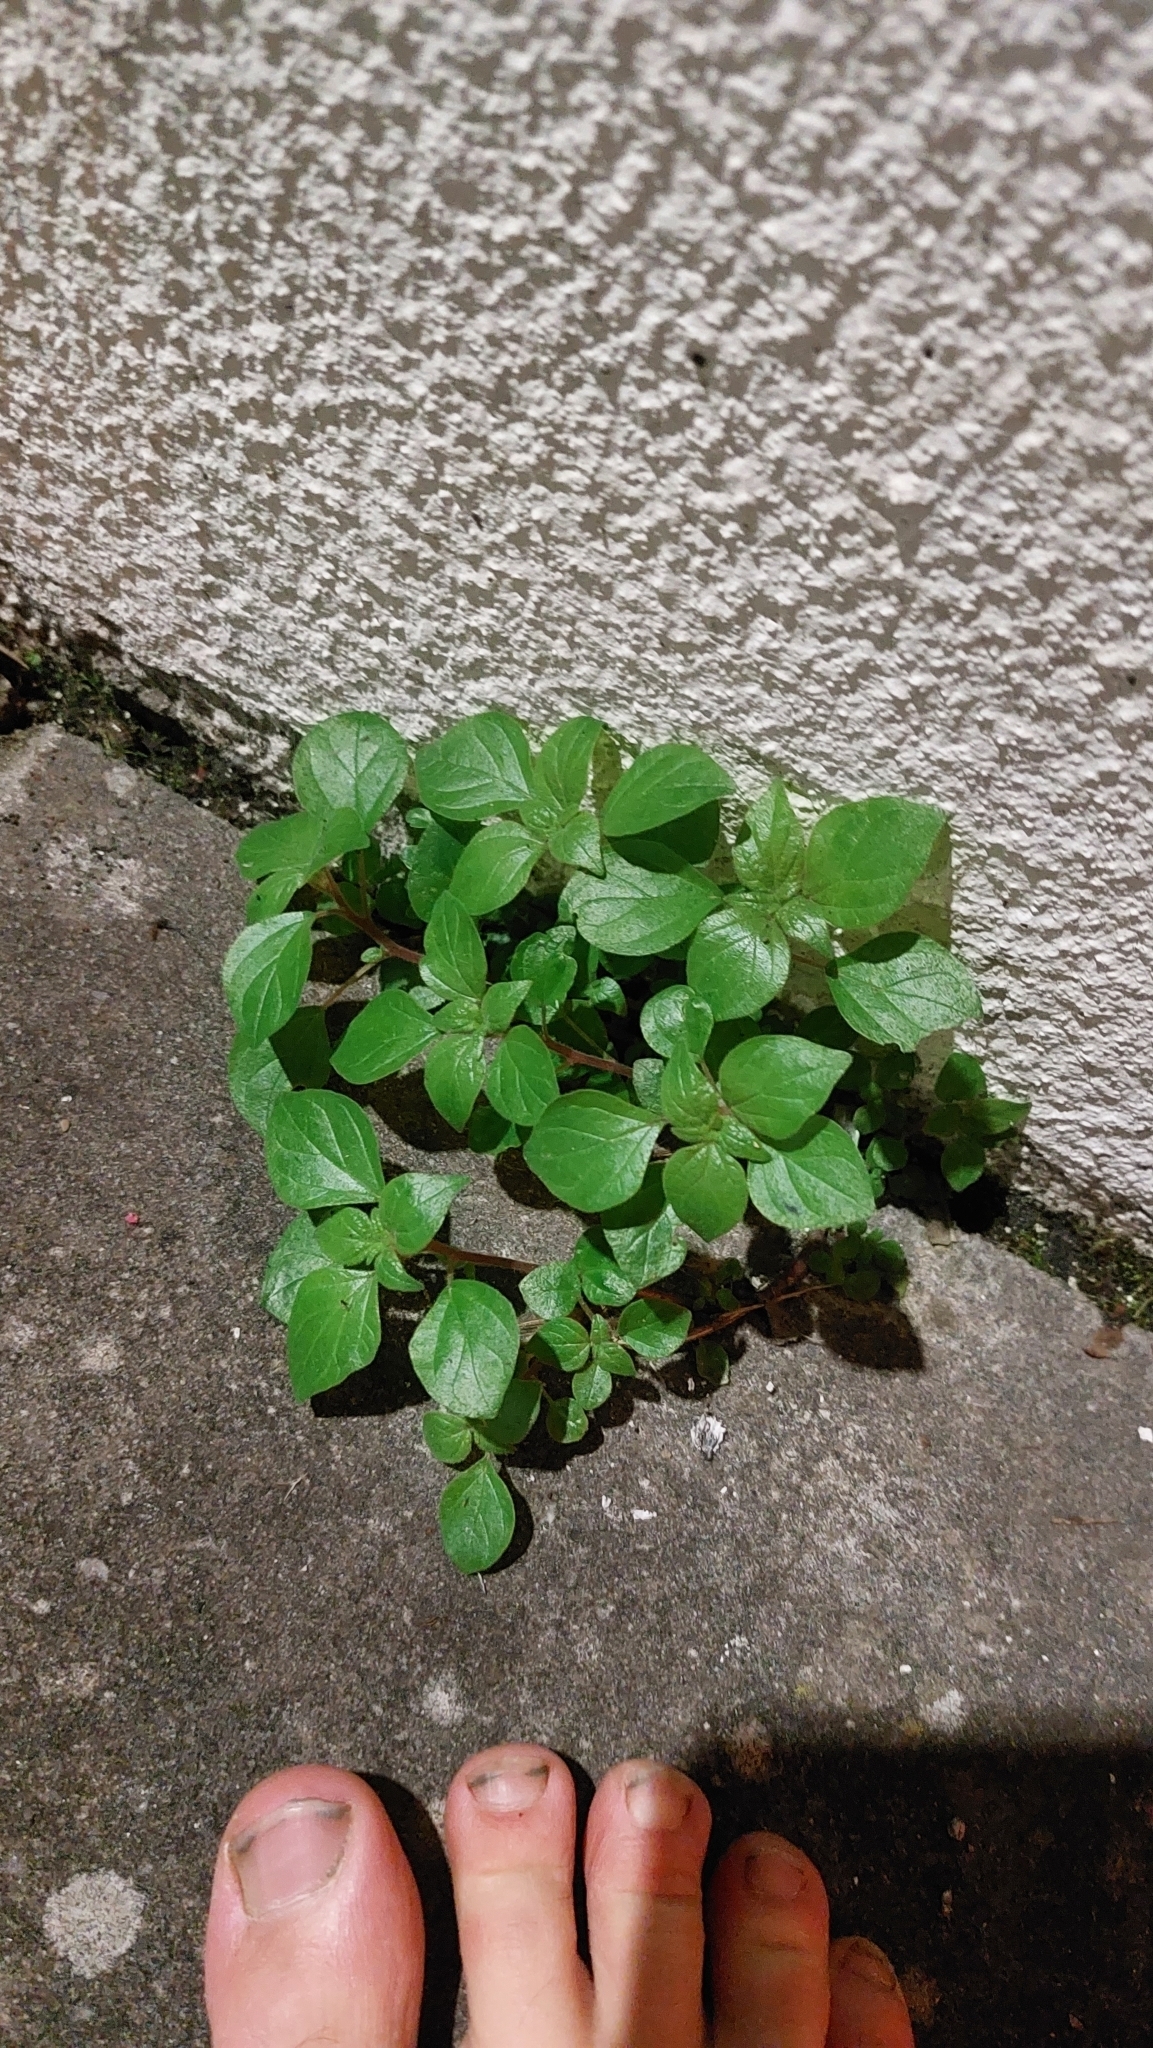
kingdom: Plantae
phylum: Tracheophyta
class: Magnoliopsida
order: Rosales
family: Urticaceae
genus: Parietaria
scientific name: Parietaria judaica
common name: Pellitory-of-the-wall
